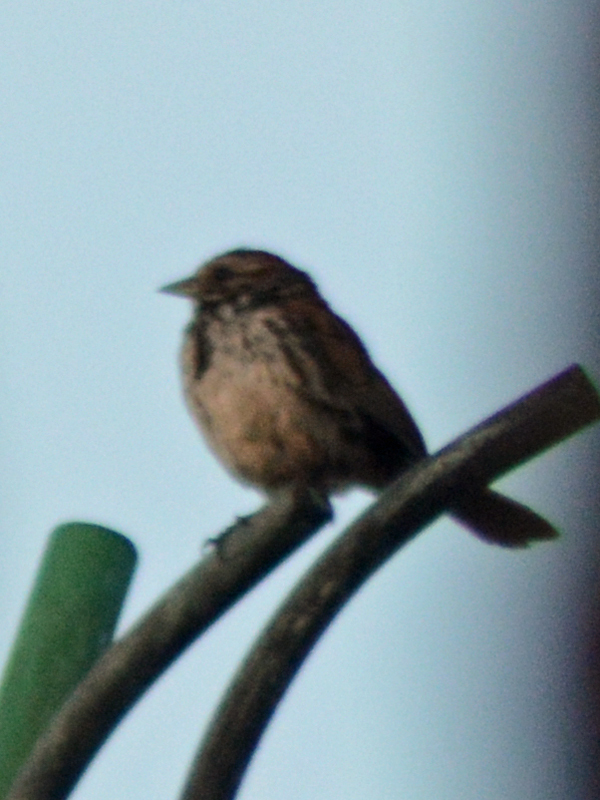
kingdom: Animalia
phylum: Chordata
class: Aves
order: Passeriformes
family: Passerellidae
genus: Melospiza
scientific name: Melospiza melodia
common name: Song sparrow
